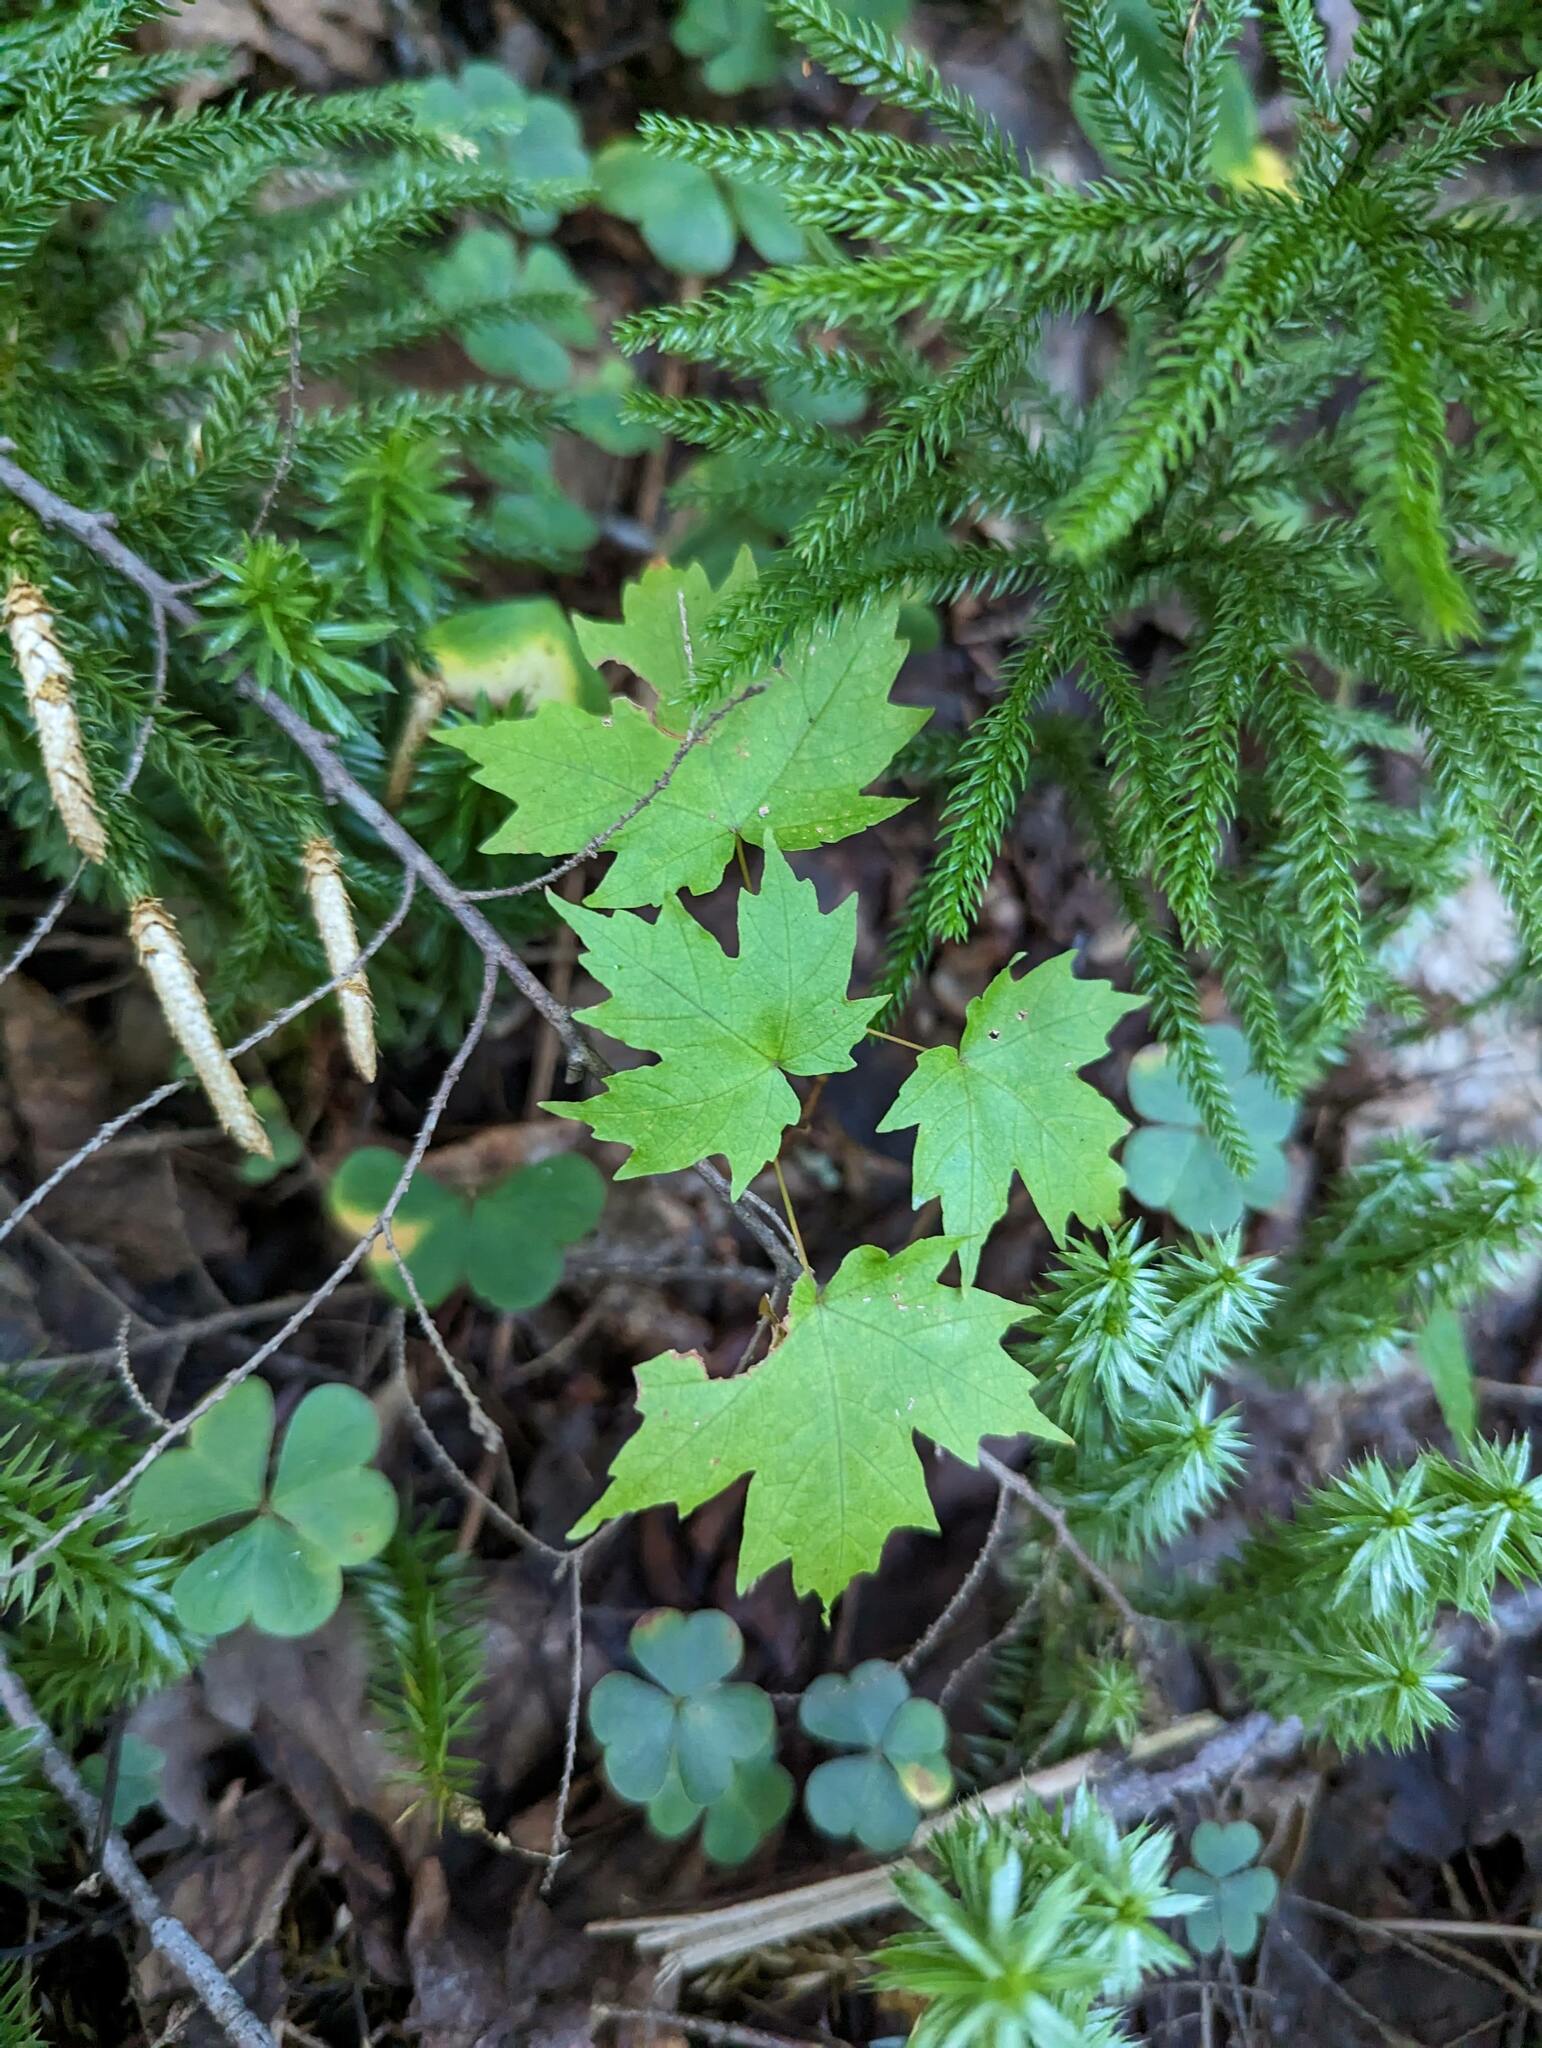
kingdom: Plantae
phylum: Tracheophyta
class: Magnoliopsida
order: Sapindales
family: Sapindaceae
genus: Acer
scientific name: Acer saccharum
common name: Sugar maple
